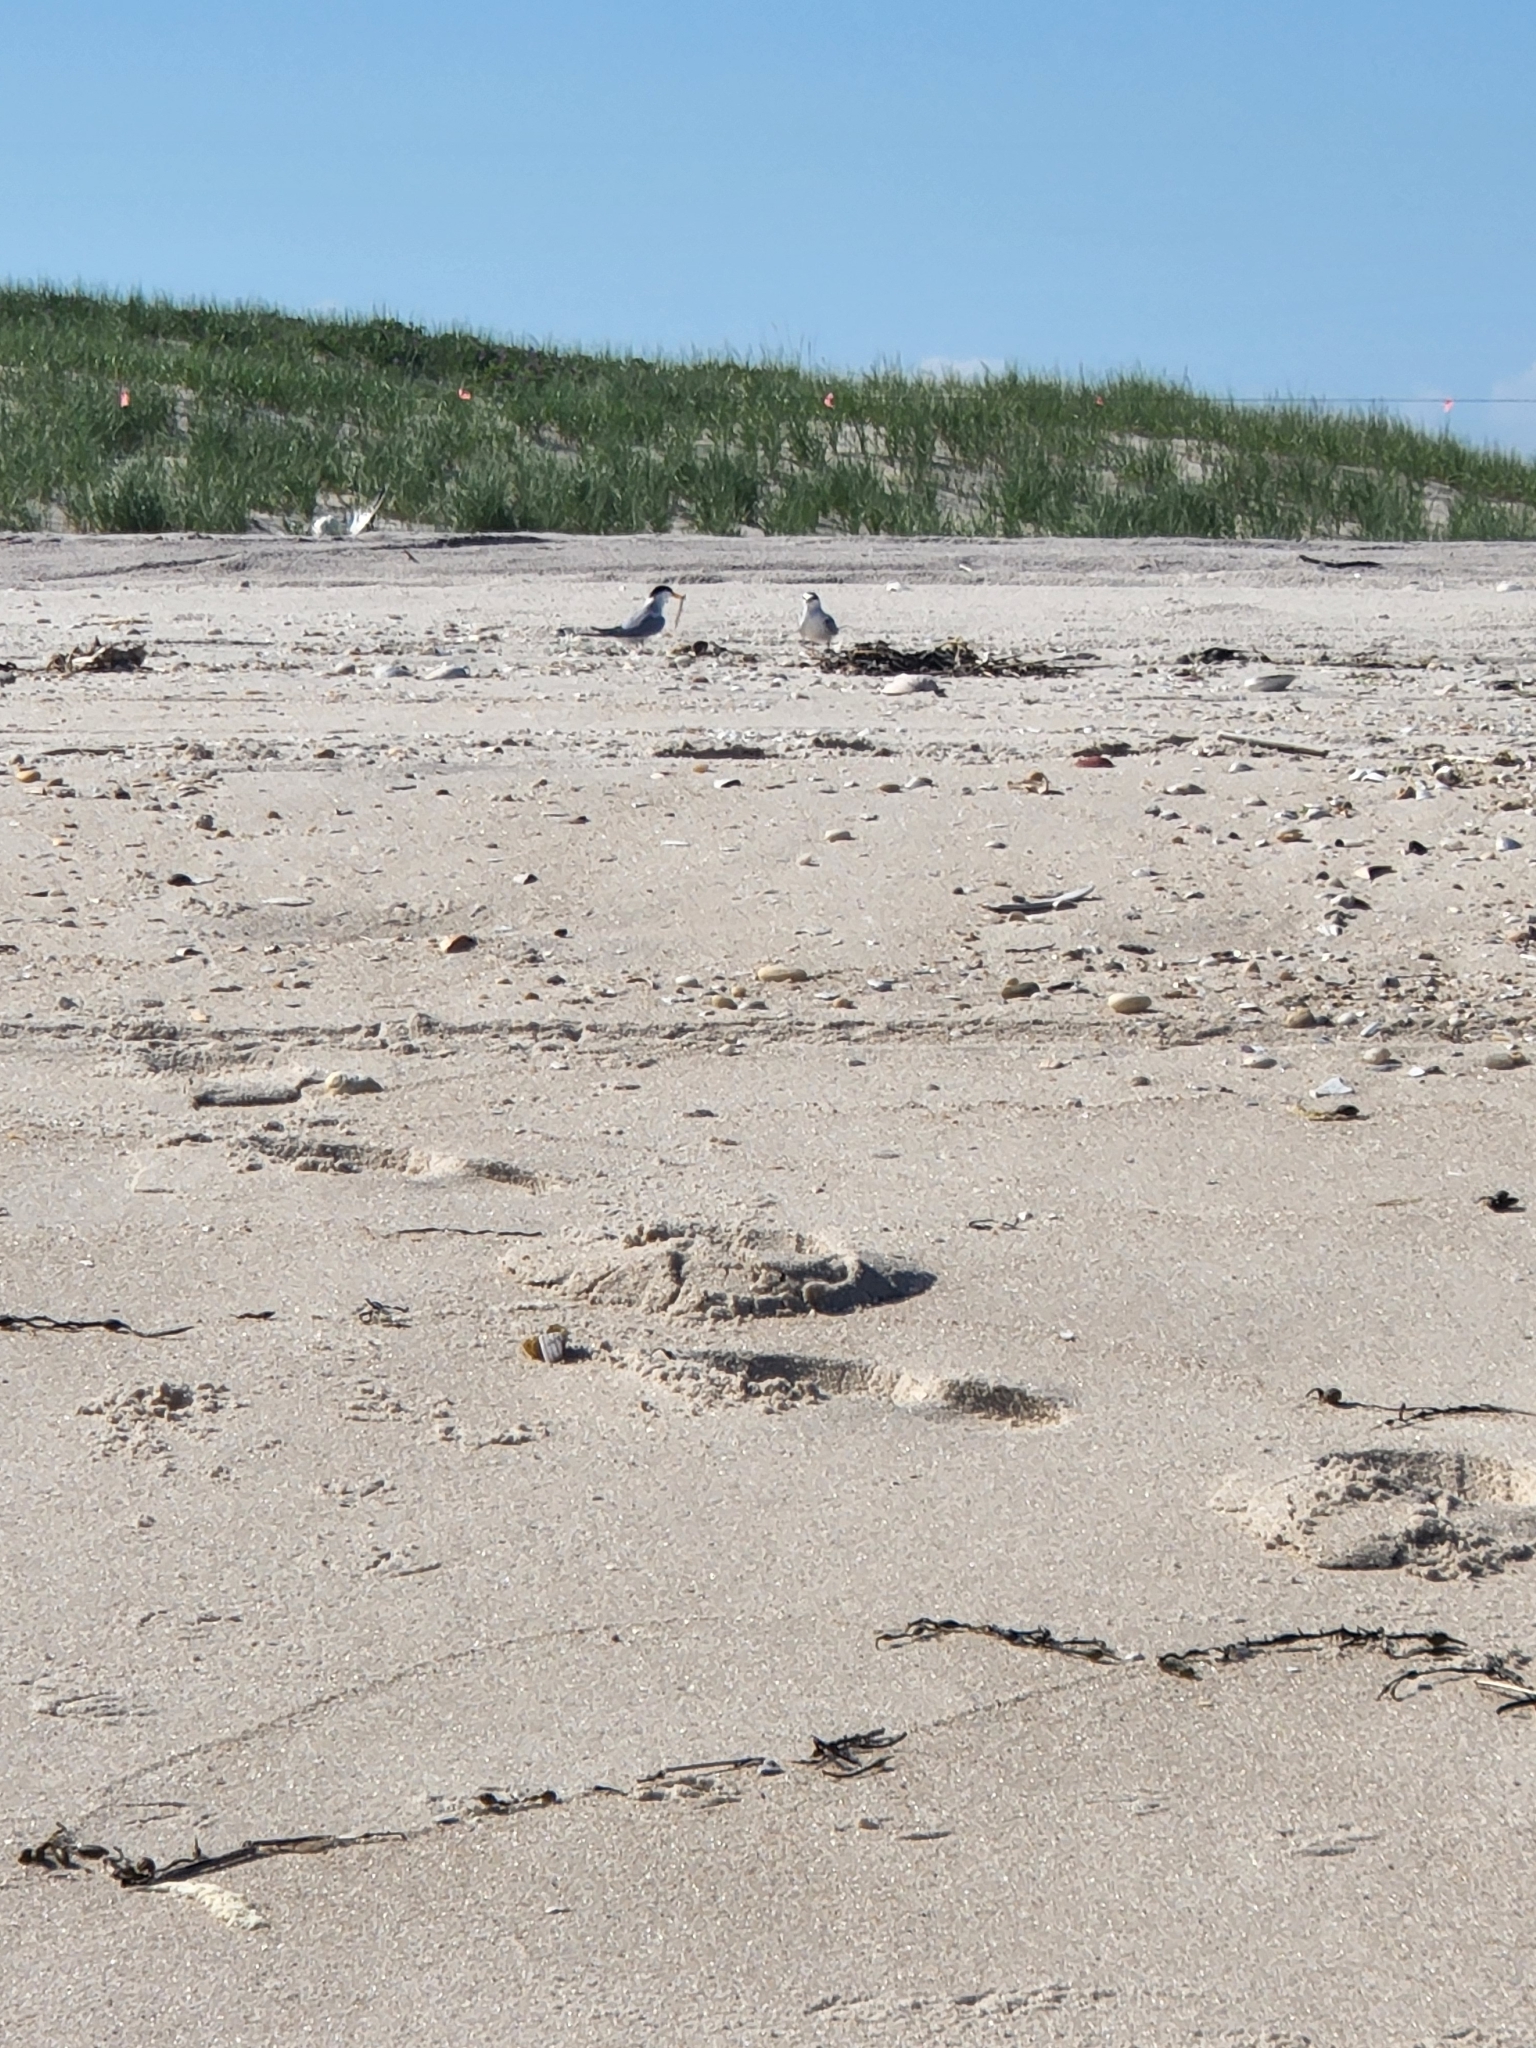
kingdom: Animalia
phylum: Chordata
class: Aves
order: Charadriiformes
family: Laridae
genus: Sternula
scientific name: Sternula antillarum
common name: Least tern
